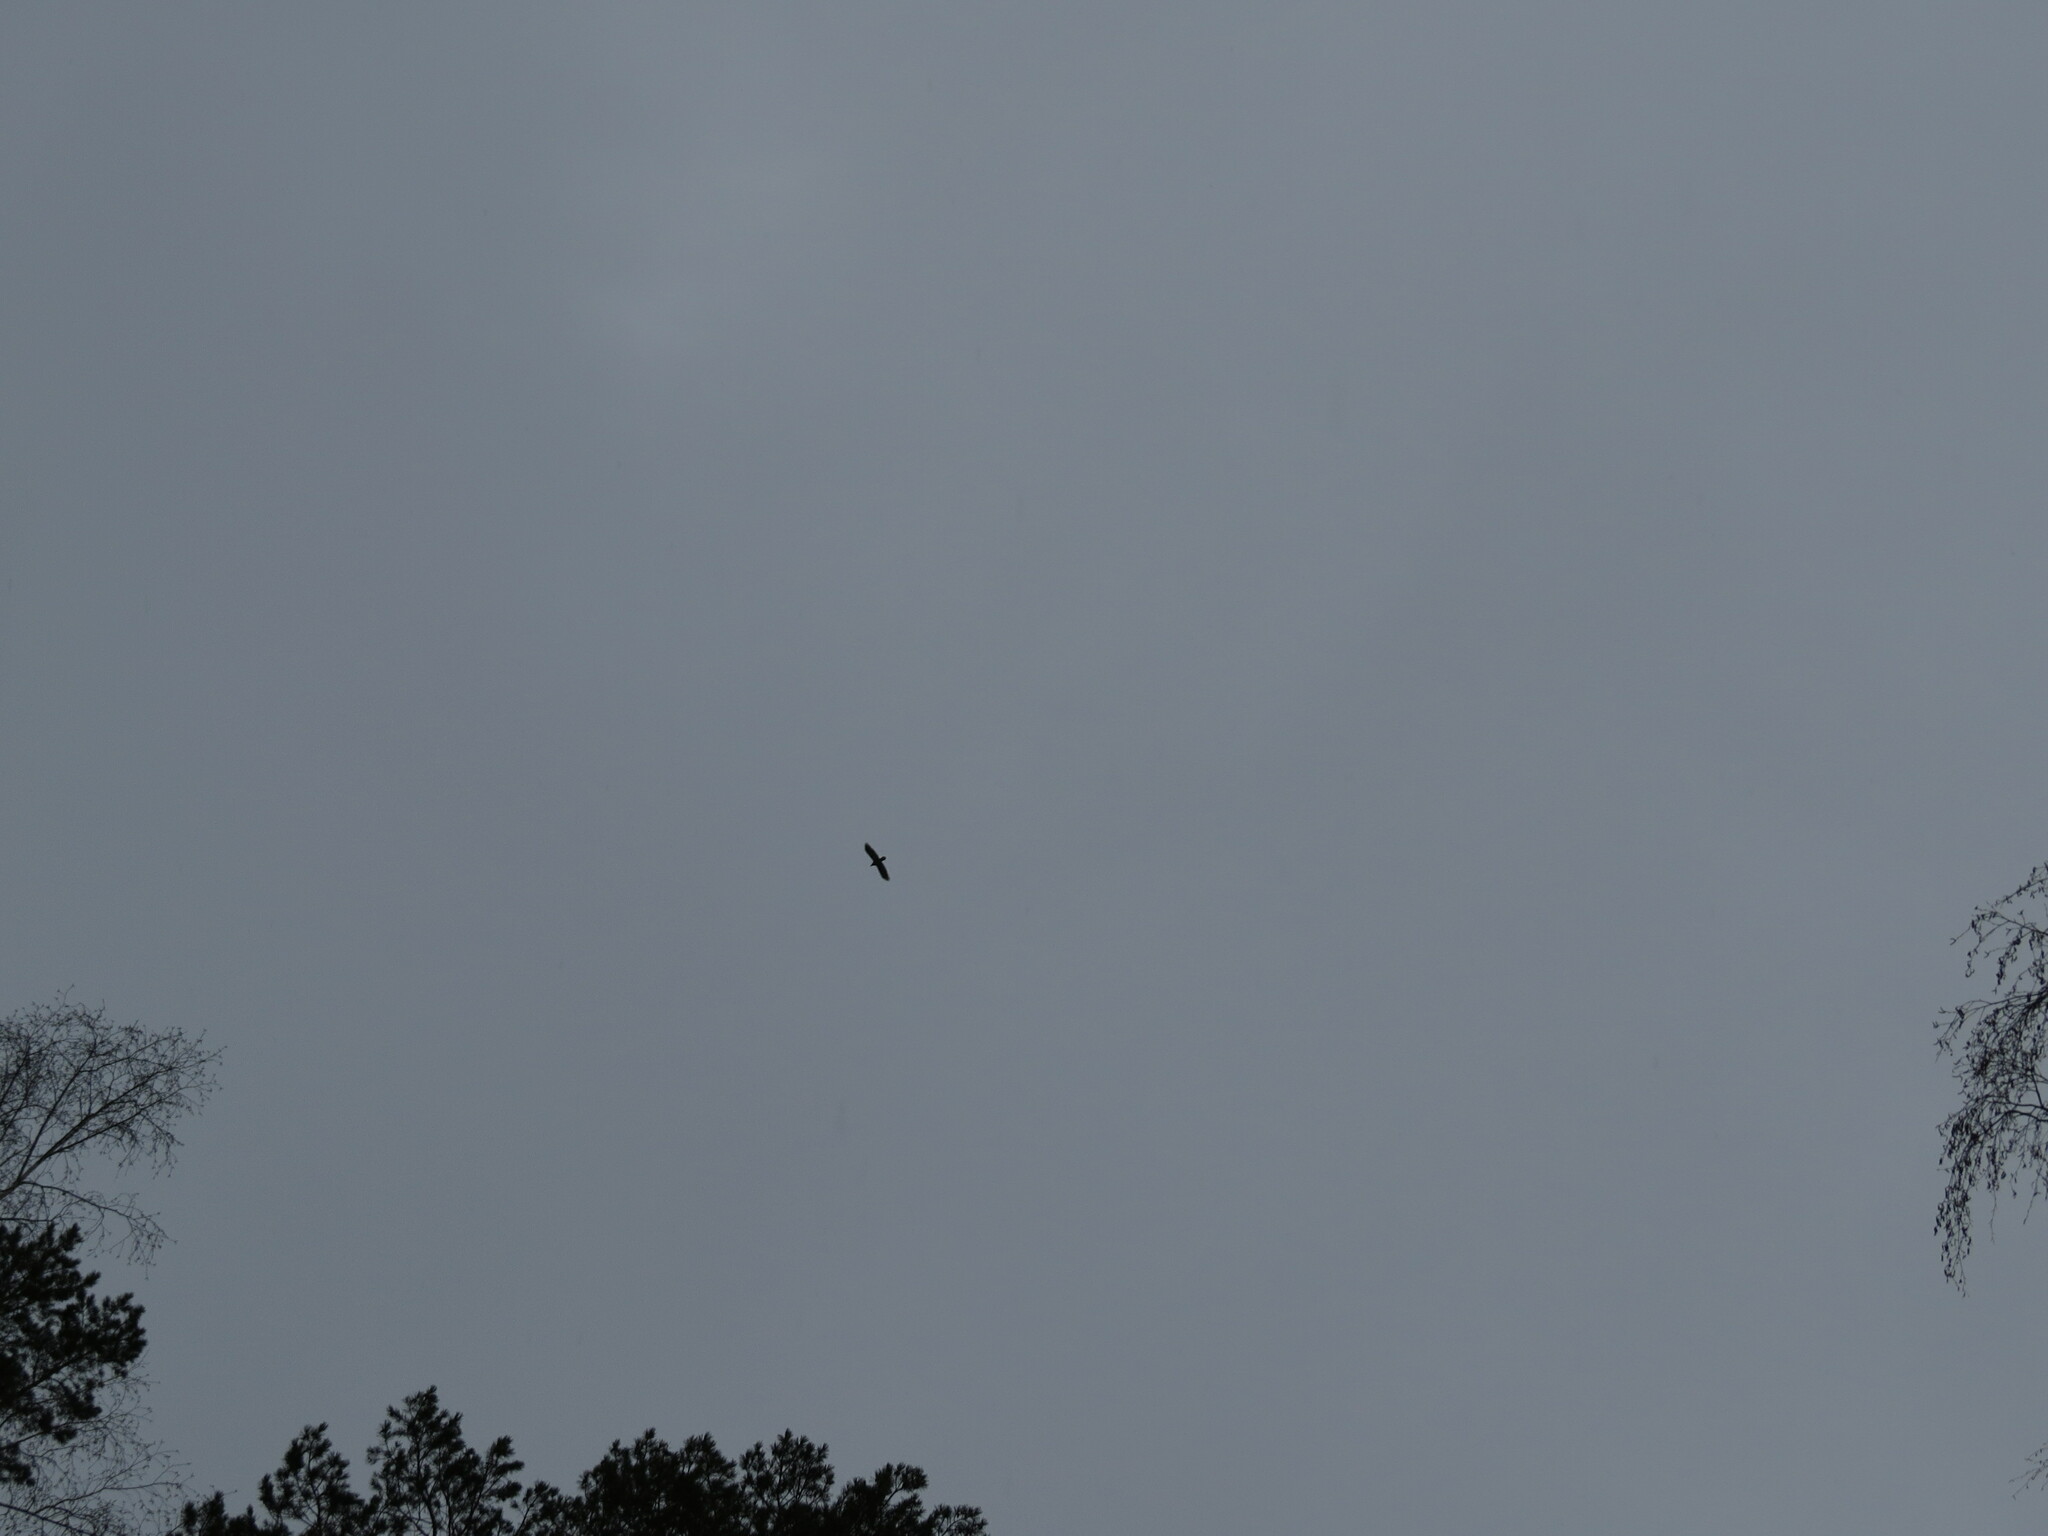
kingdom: Animalia
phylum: Chordata
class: Aves
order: Passeriformes
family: Corvidae
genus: Corvus
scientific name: Corvus corax
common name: Common raven
